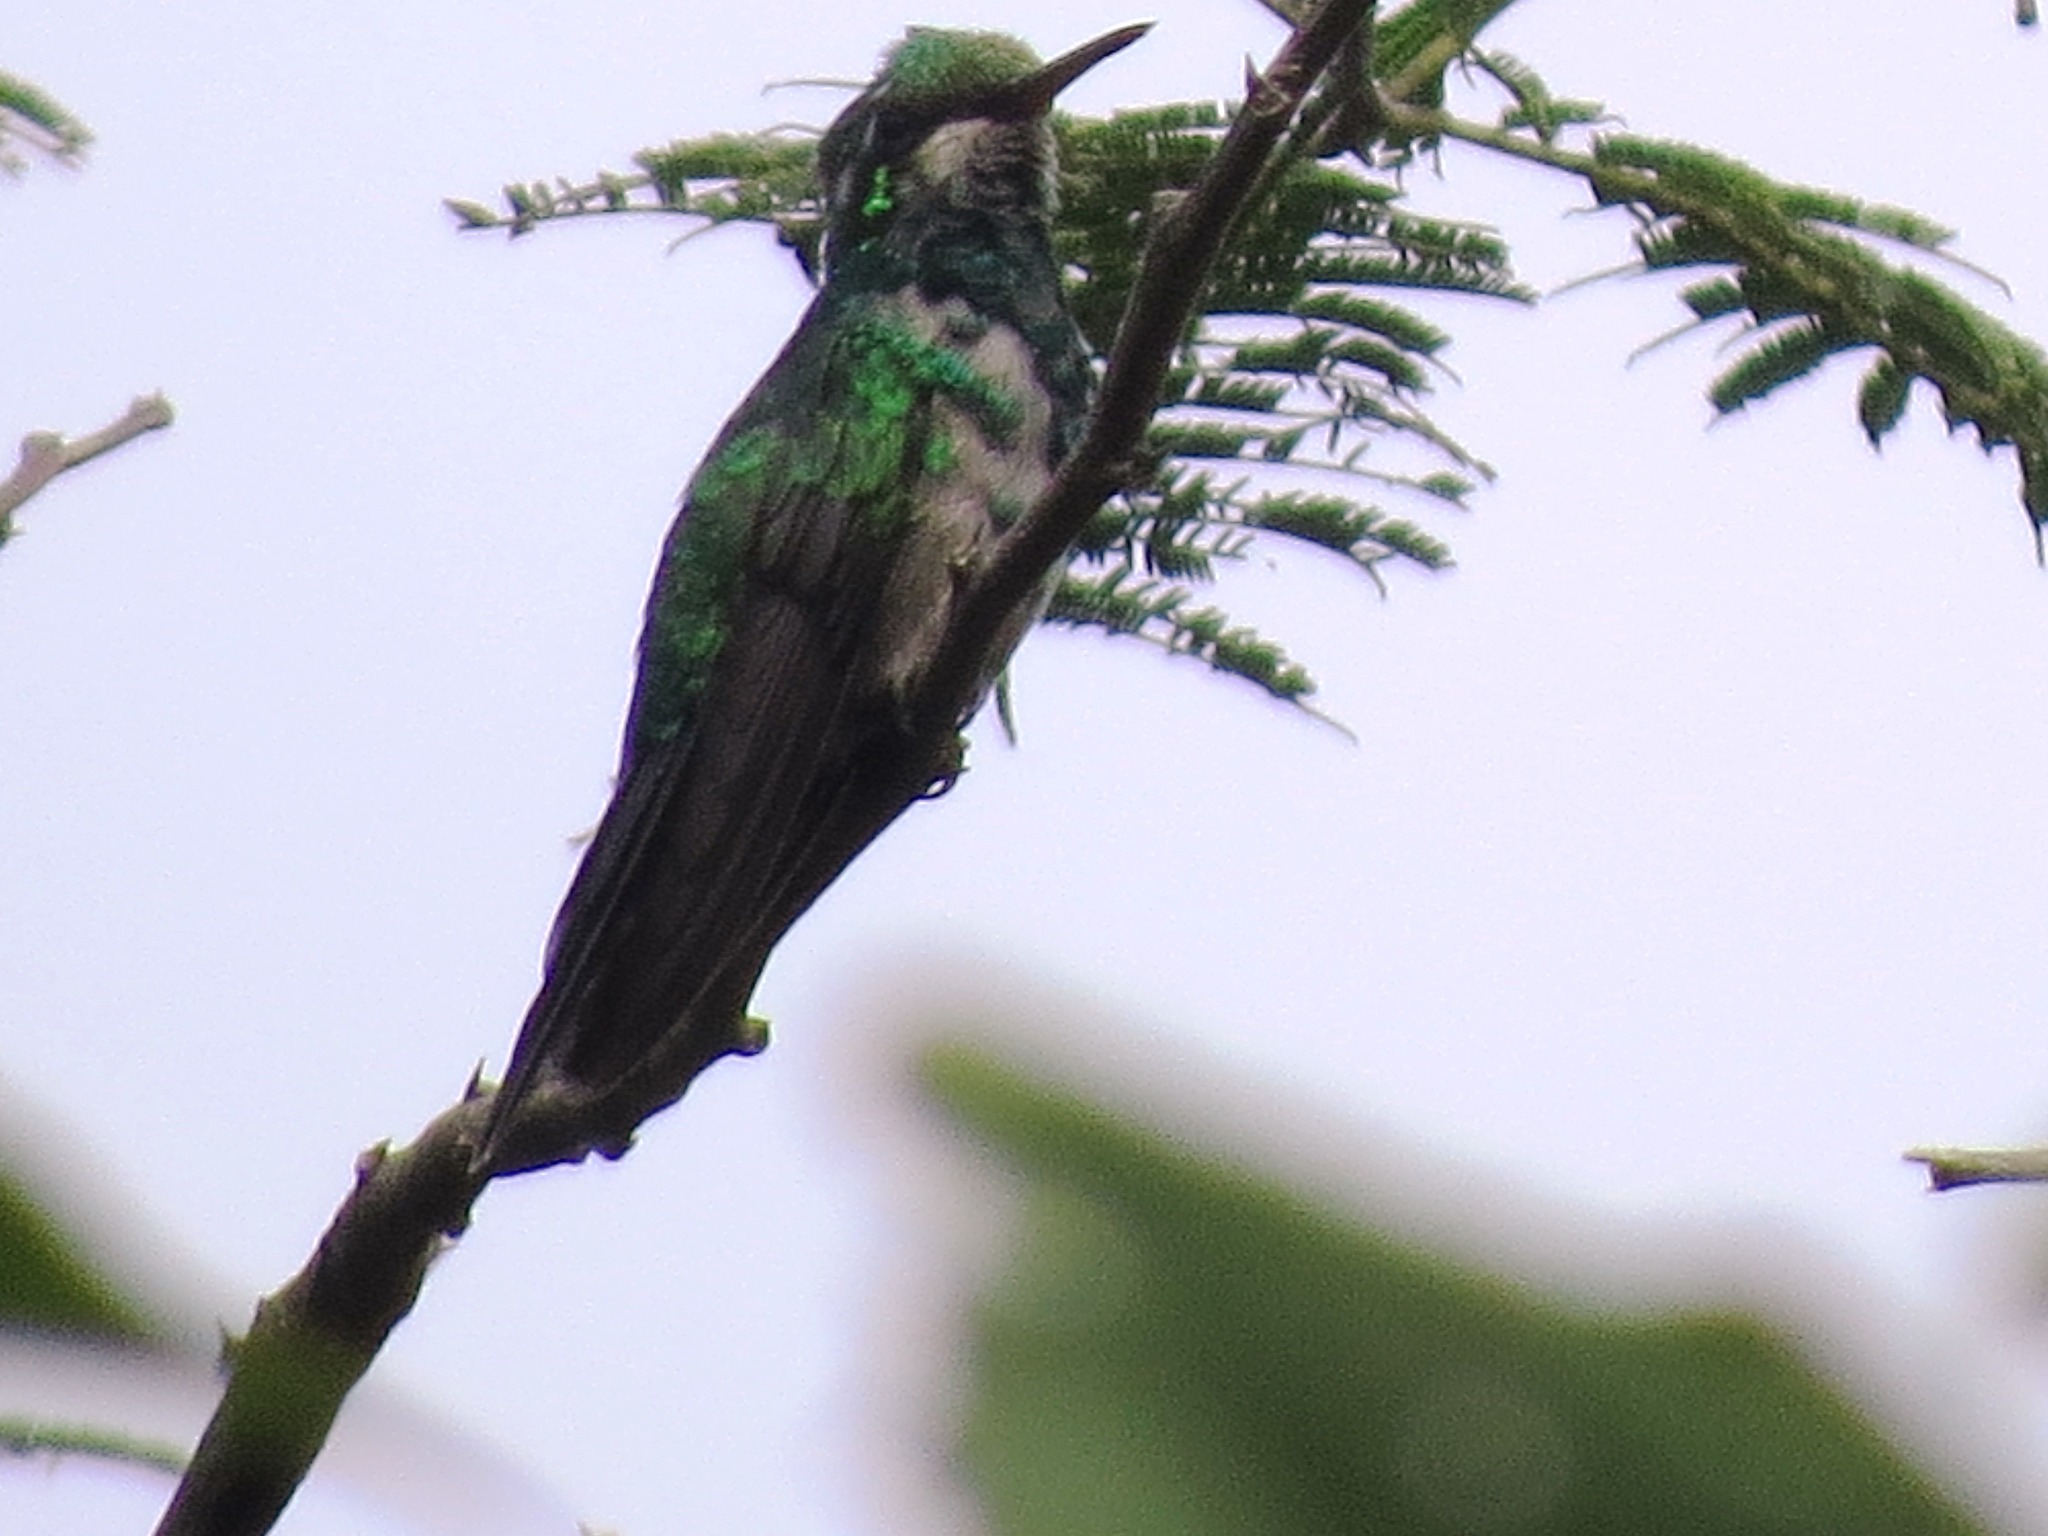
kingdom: Animalia
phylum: Chordata
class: Aves
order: Apodiformes
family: Trochilidae
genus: Cynanthus
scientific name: Cynanthus canivetii
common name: Canivet's emerald
